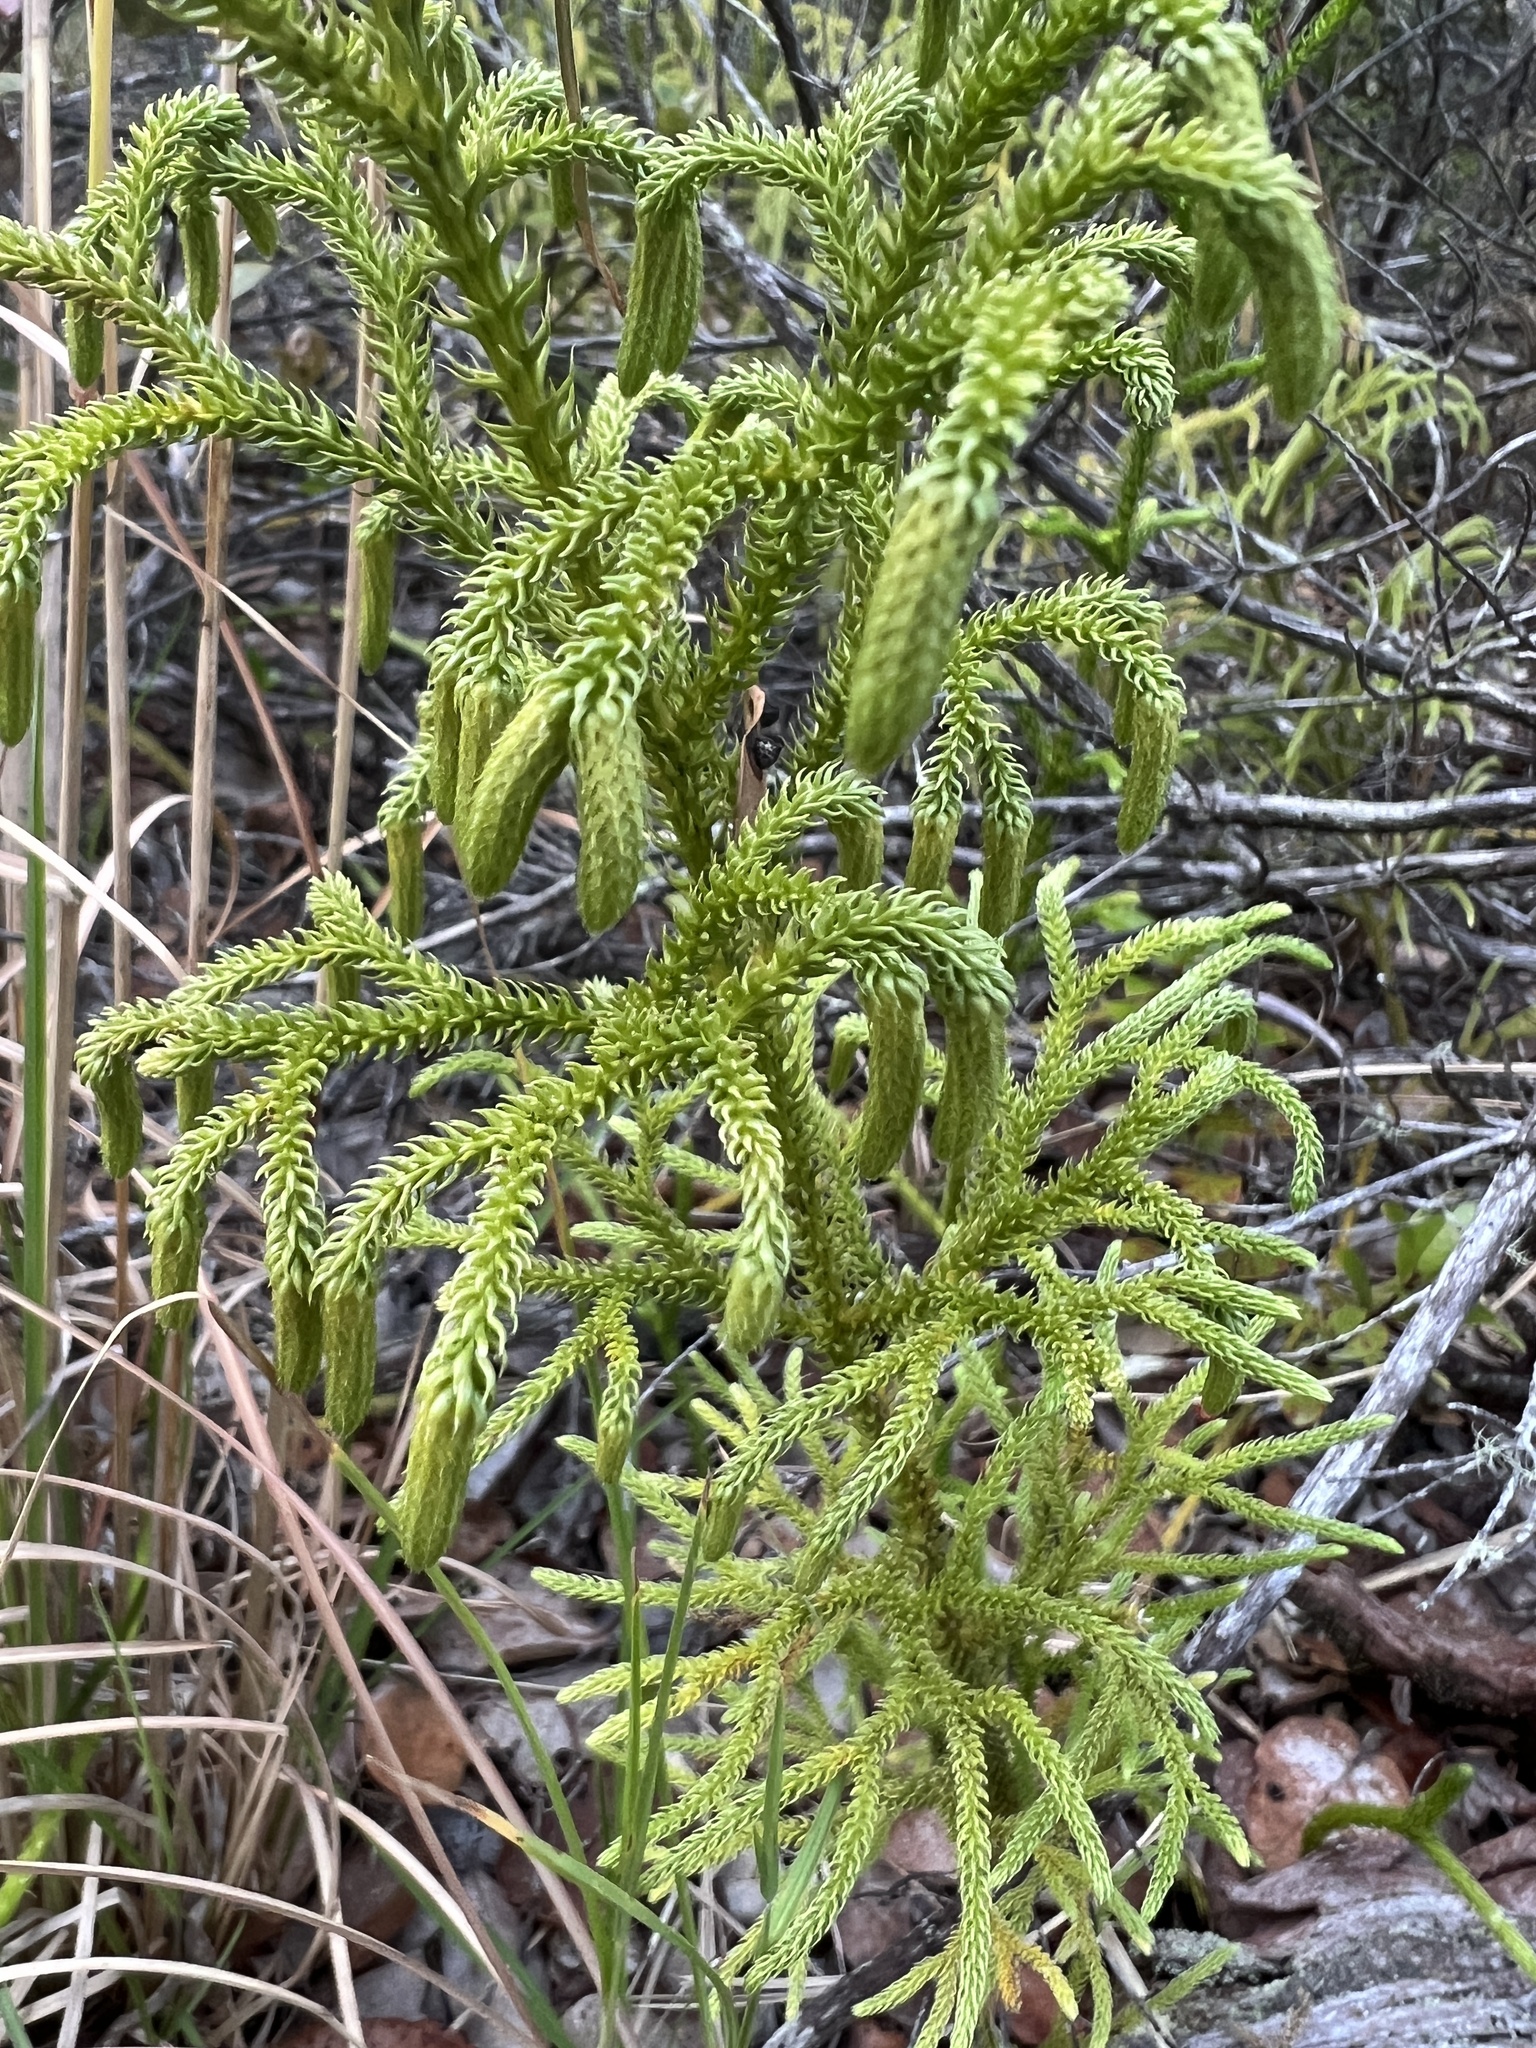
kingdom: Plantae
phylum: Tracheophyta
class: Lycopodiopsida
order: Lycopodiales
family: Lycopodiaceae
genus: Palhinhaea
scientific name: Palhinhaea cernua
